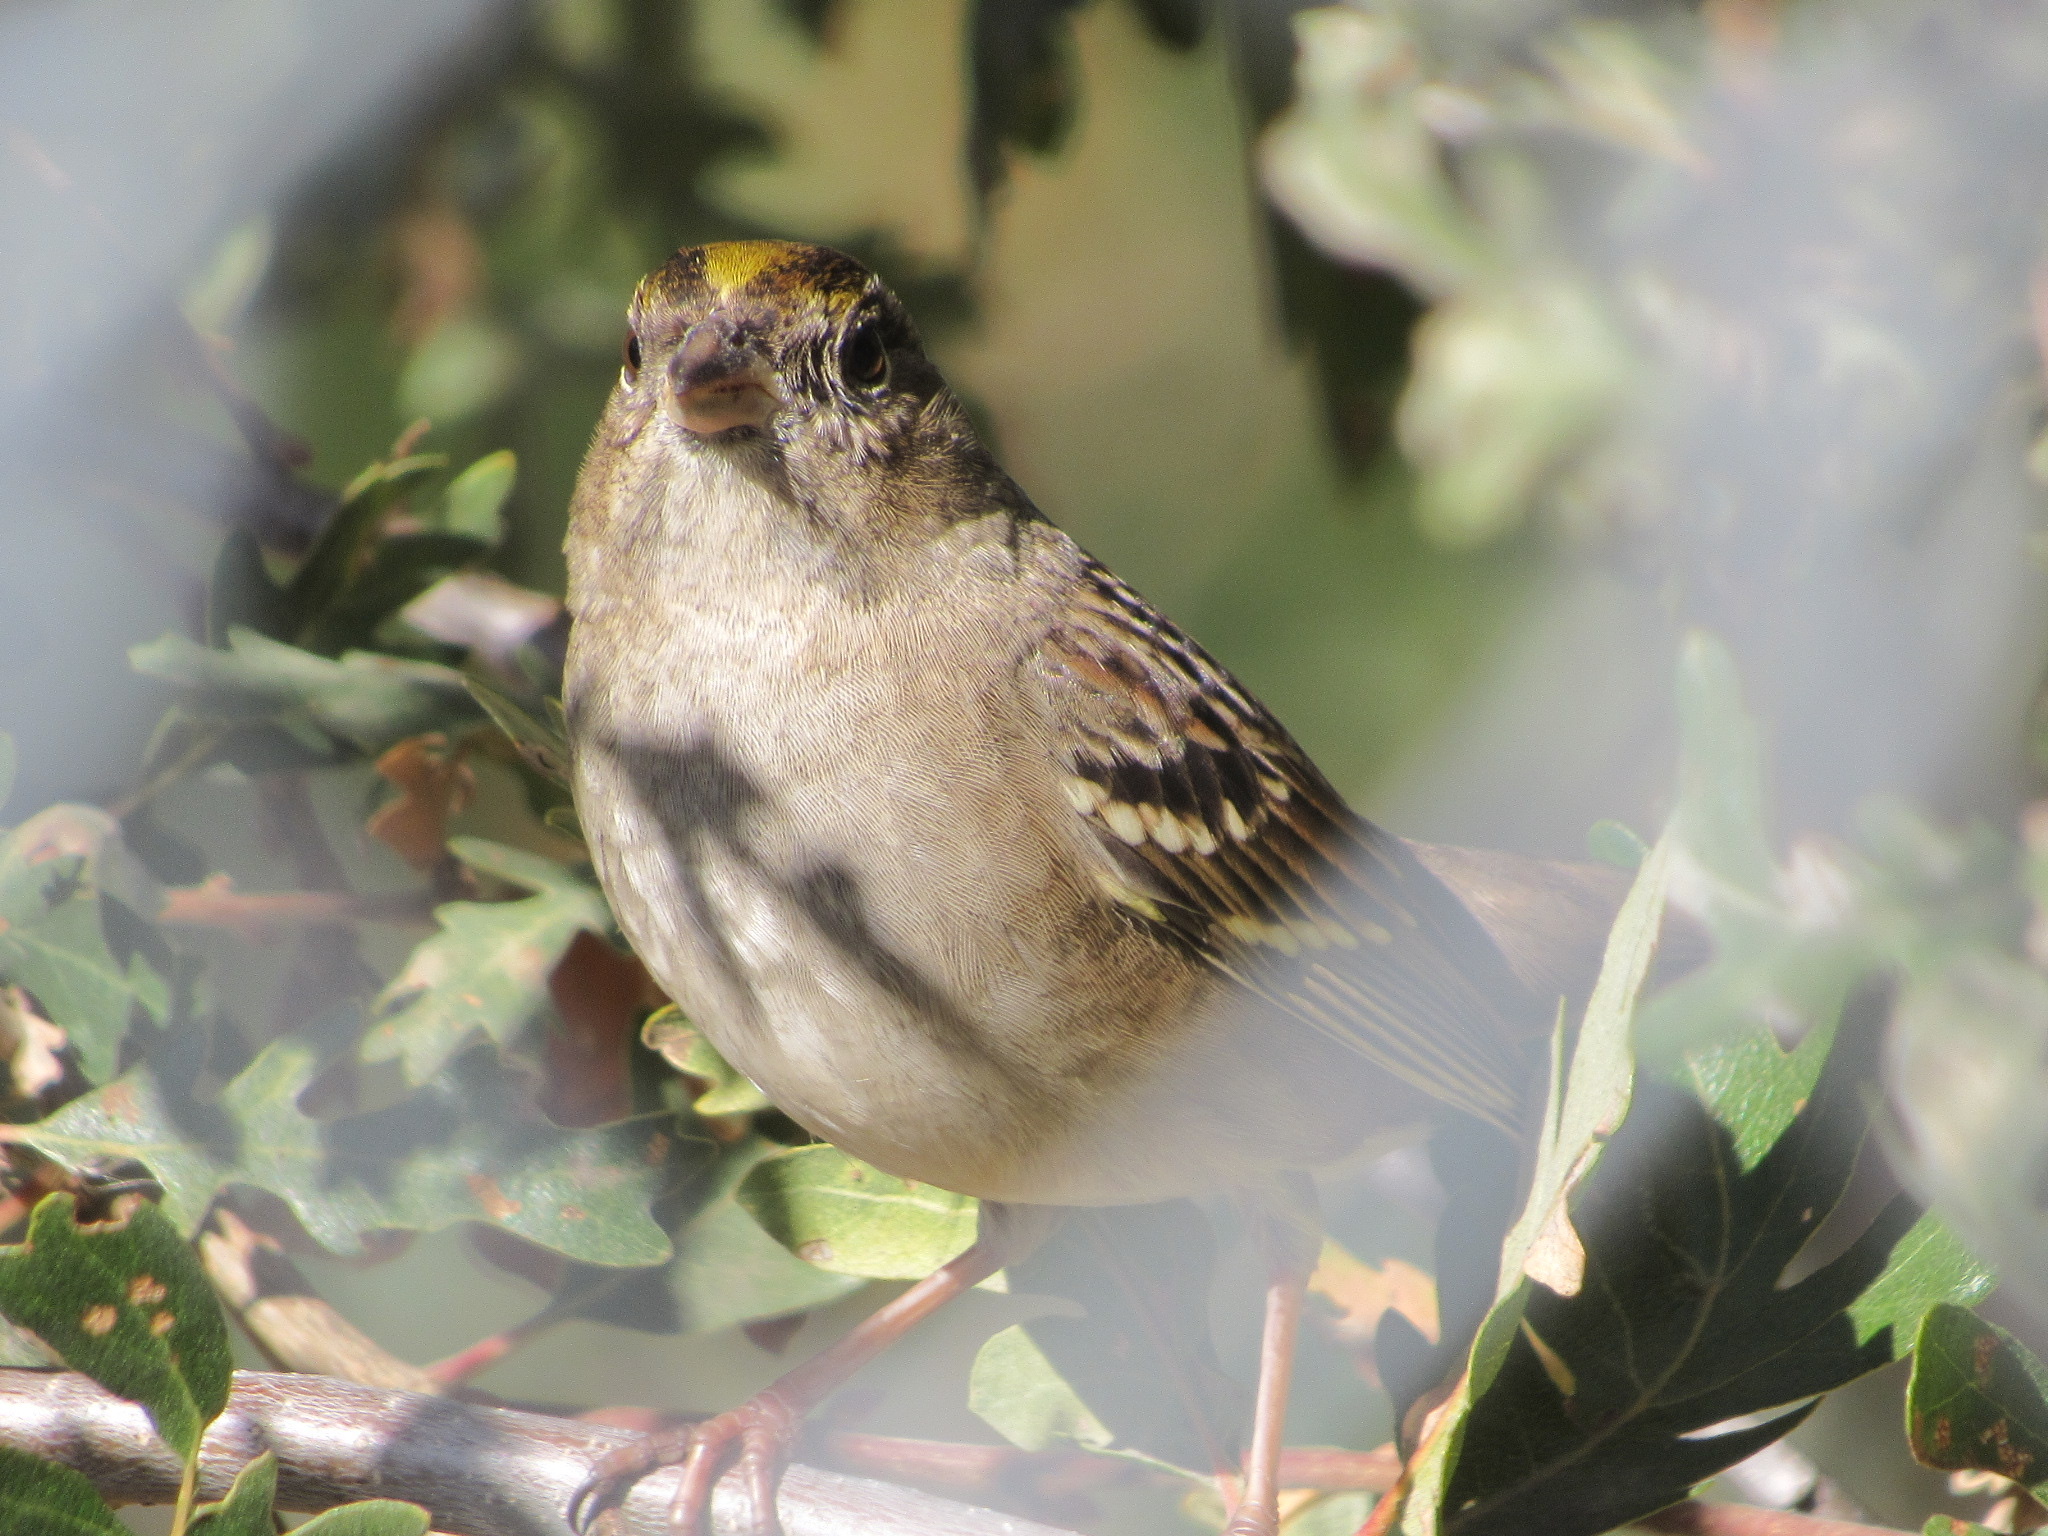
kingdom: Animalia
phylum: Chordata
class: Aves
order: Passeriformes
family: Passerellidae
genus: Zonotrichia
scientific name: Zonotrichia atricapilla
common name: Golden-crowned sparrow
